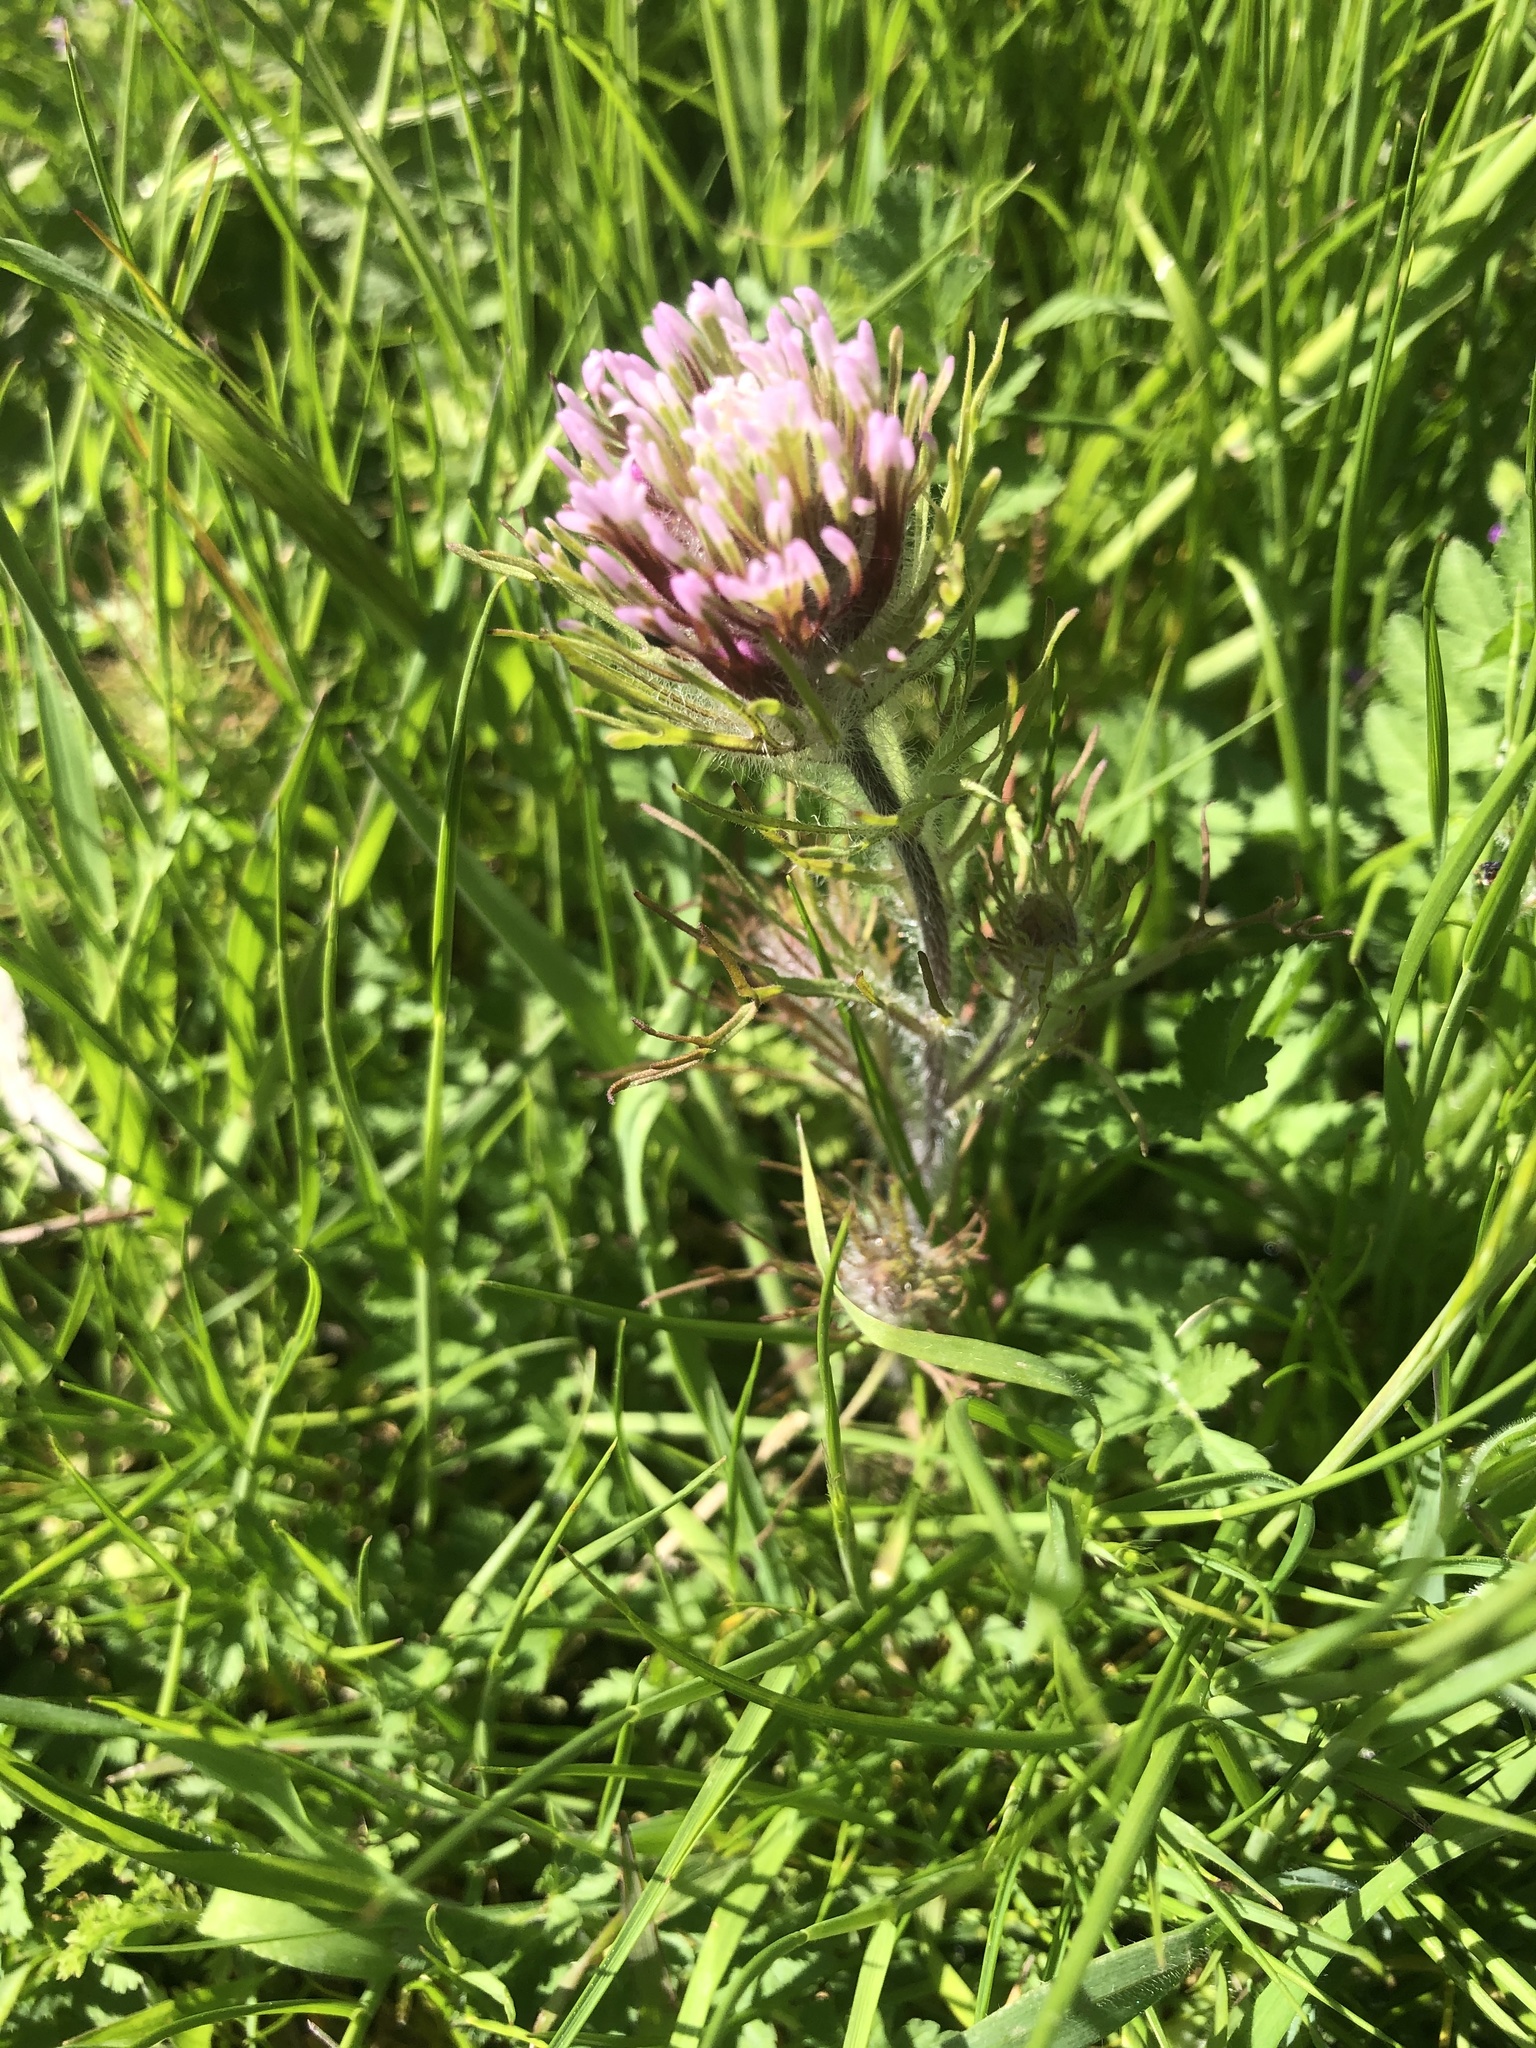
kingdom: Plantae
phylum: Tracheophyta
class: Magnoliopsida
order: Lamiales
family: Orobanchaceae
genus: Castilleja
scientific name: Castilleja
